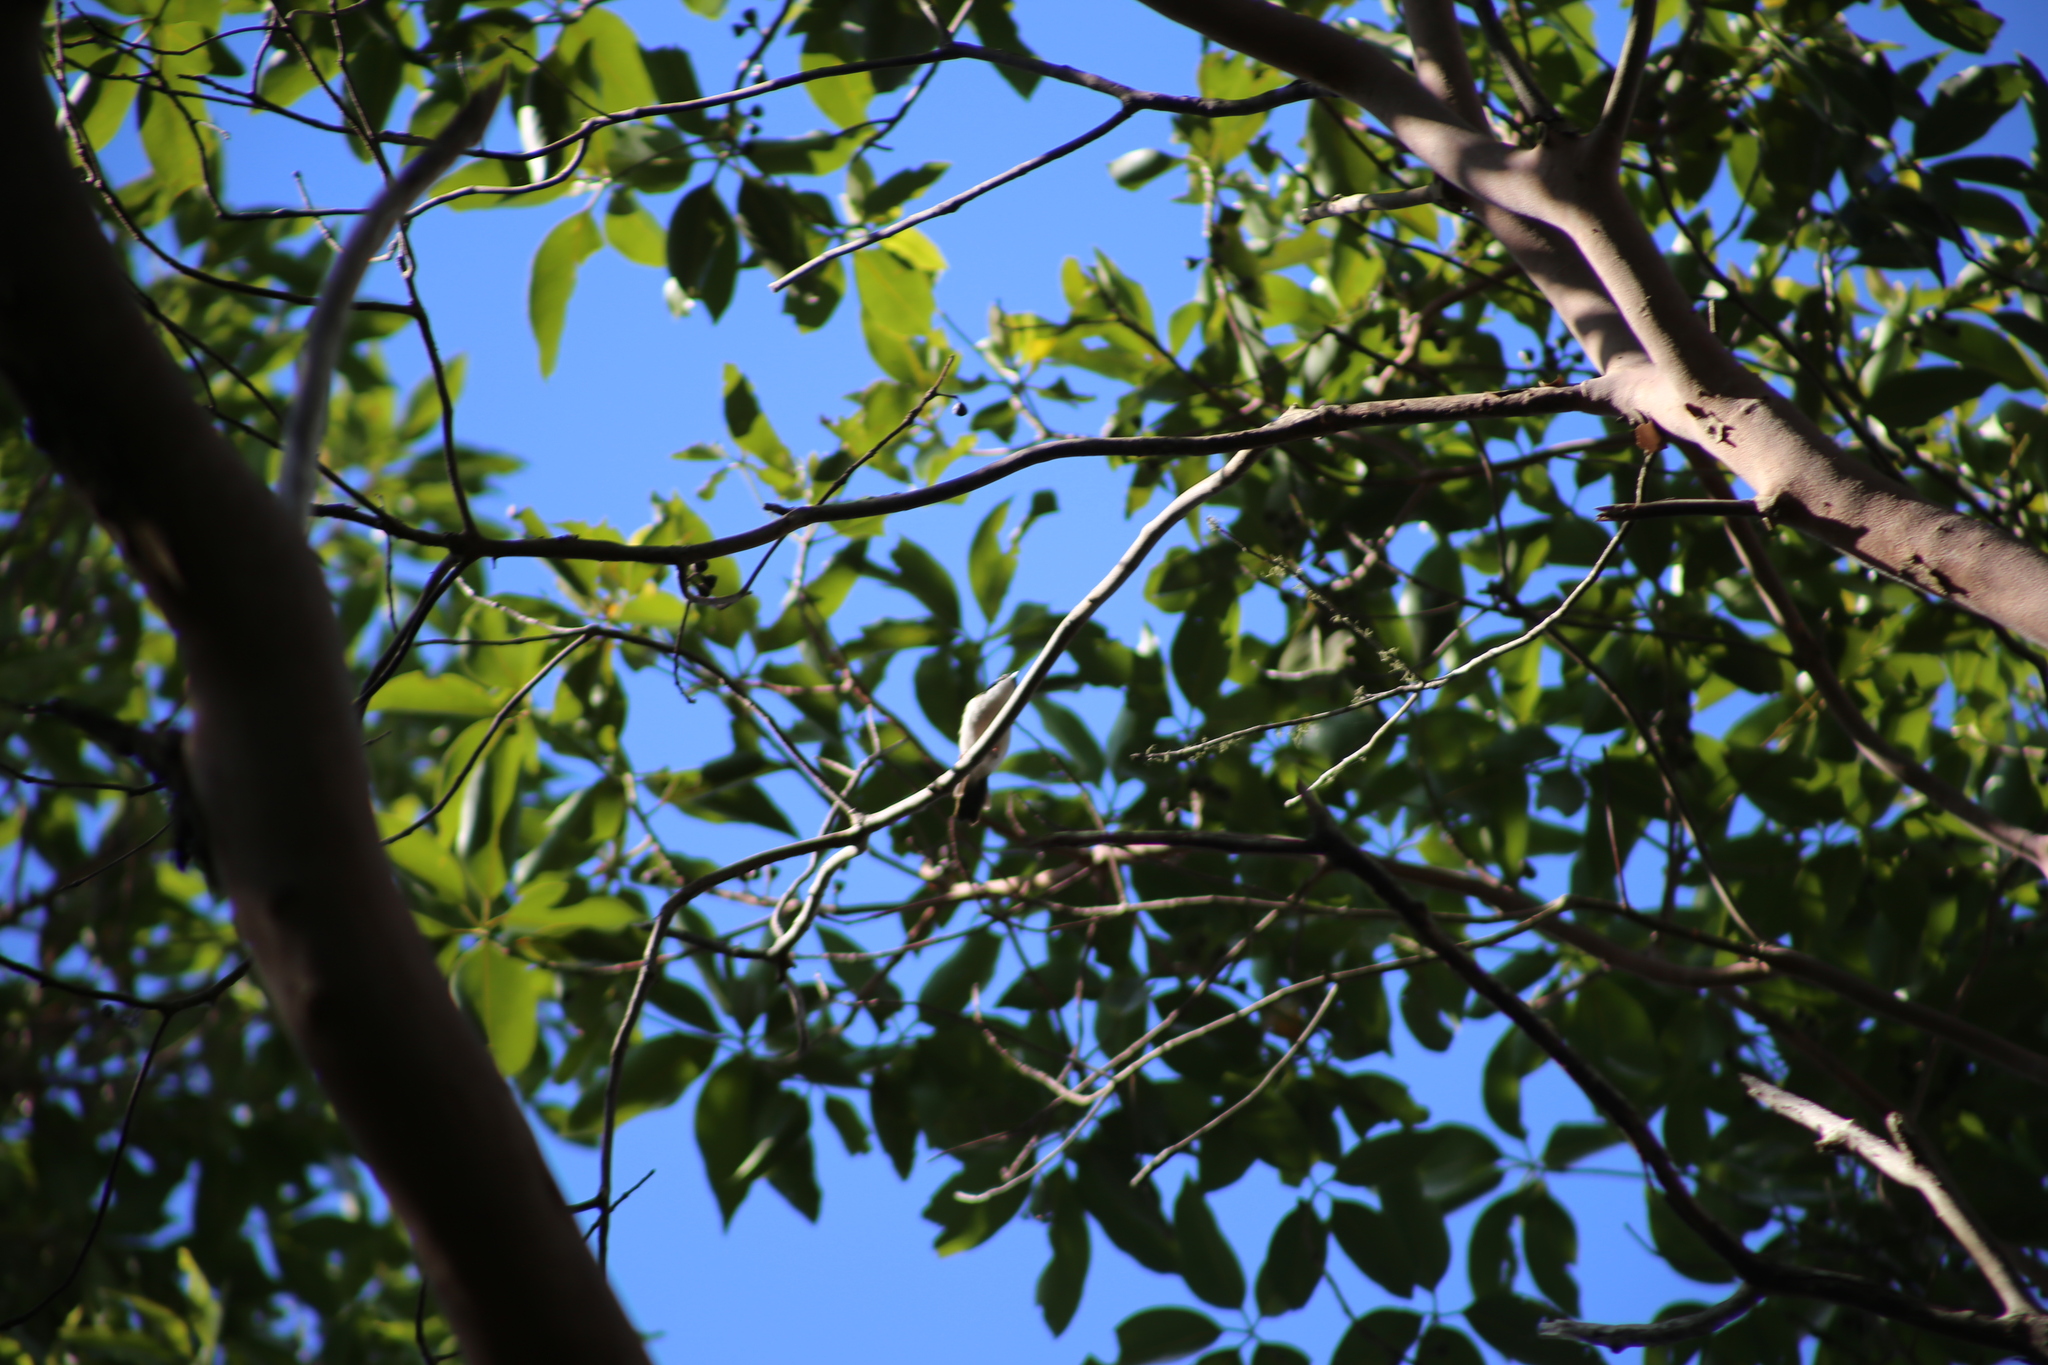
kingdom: Animalia
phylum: Chordata
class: Aves
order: Passeriformes
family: Meliphagidae
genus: Melithreptus
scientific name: Melithreptus albogularis
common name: White-throated honeyeater
